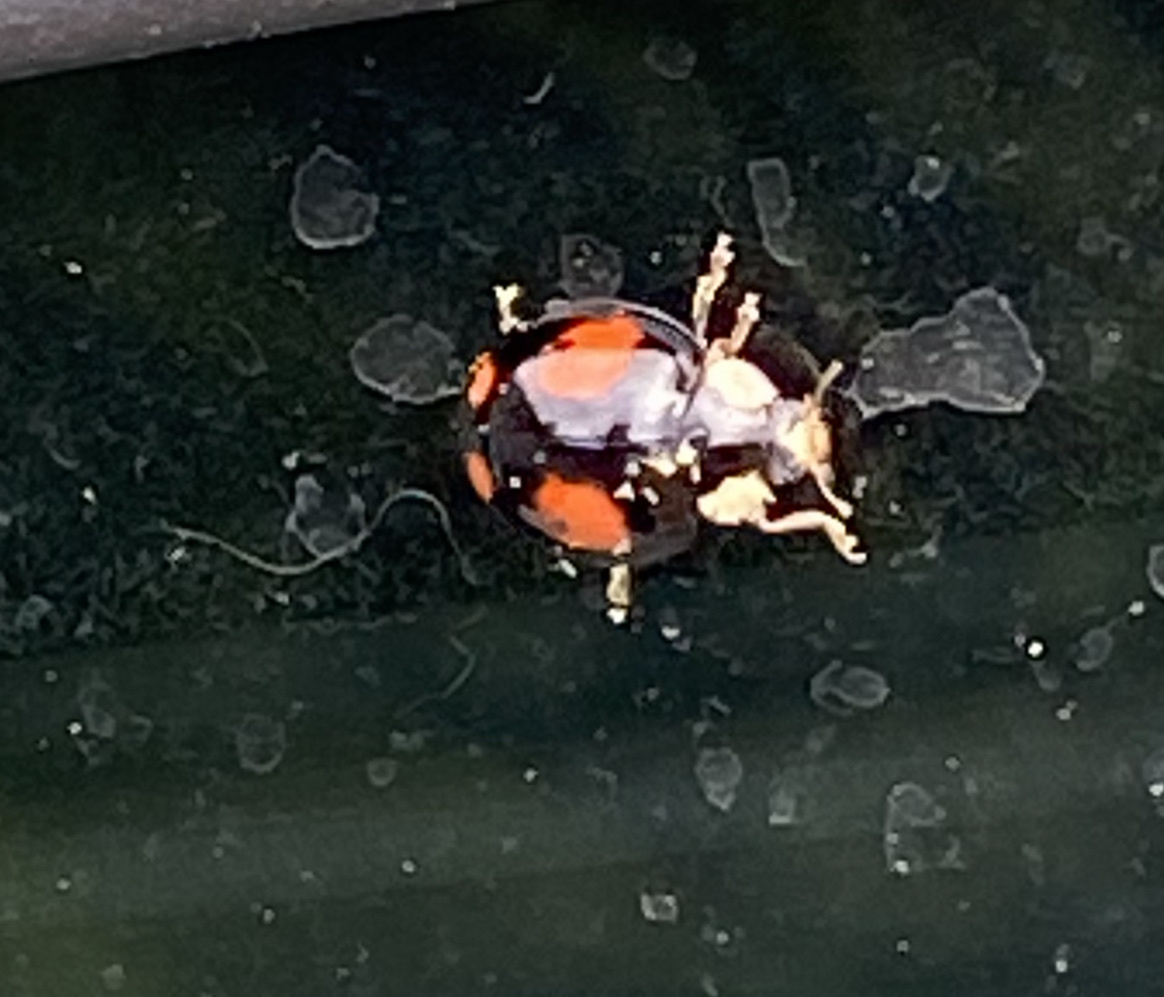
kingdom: Animalia
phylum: Arthropoda
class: Insecta
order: Coleoptera
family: Coccinellidae
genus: Harmonia
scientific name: Harmonia axyridis
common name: Harlequin ladybird
